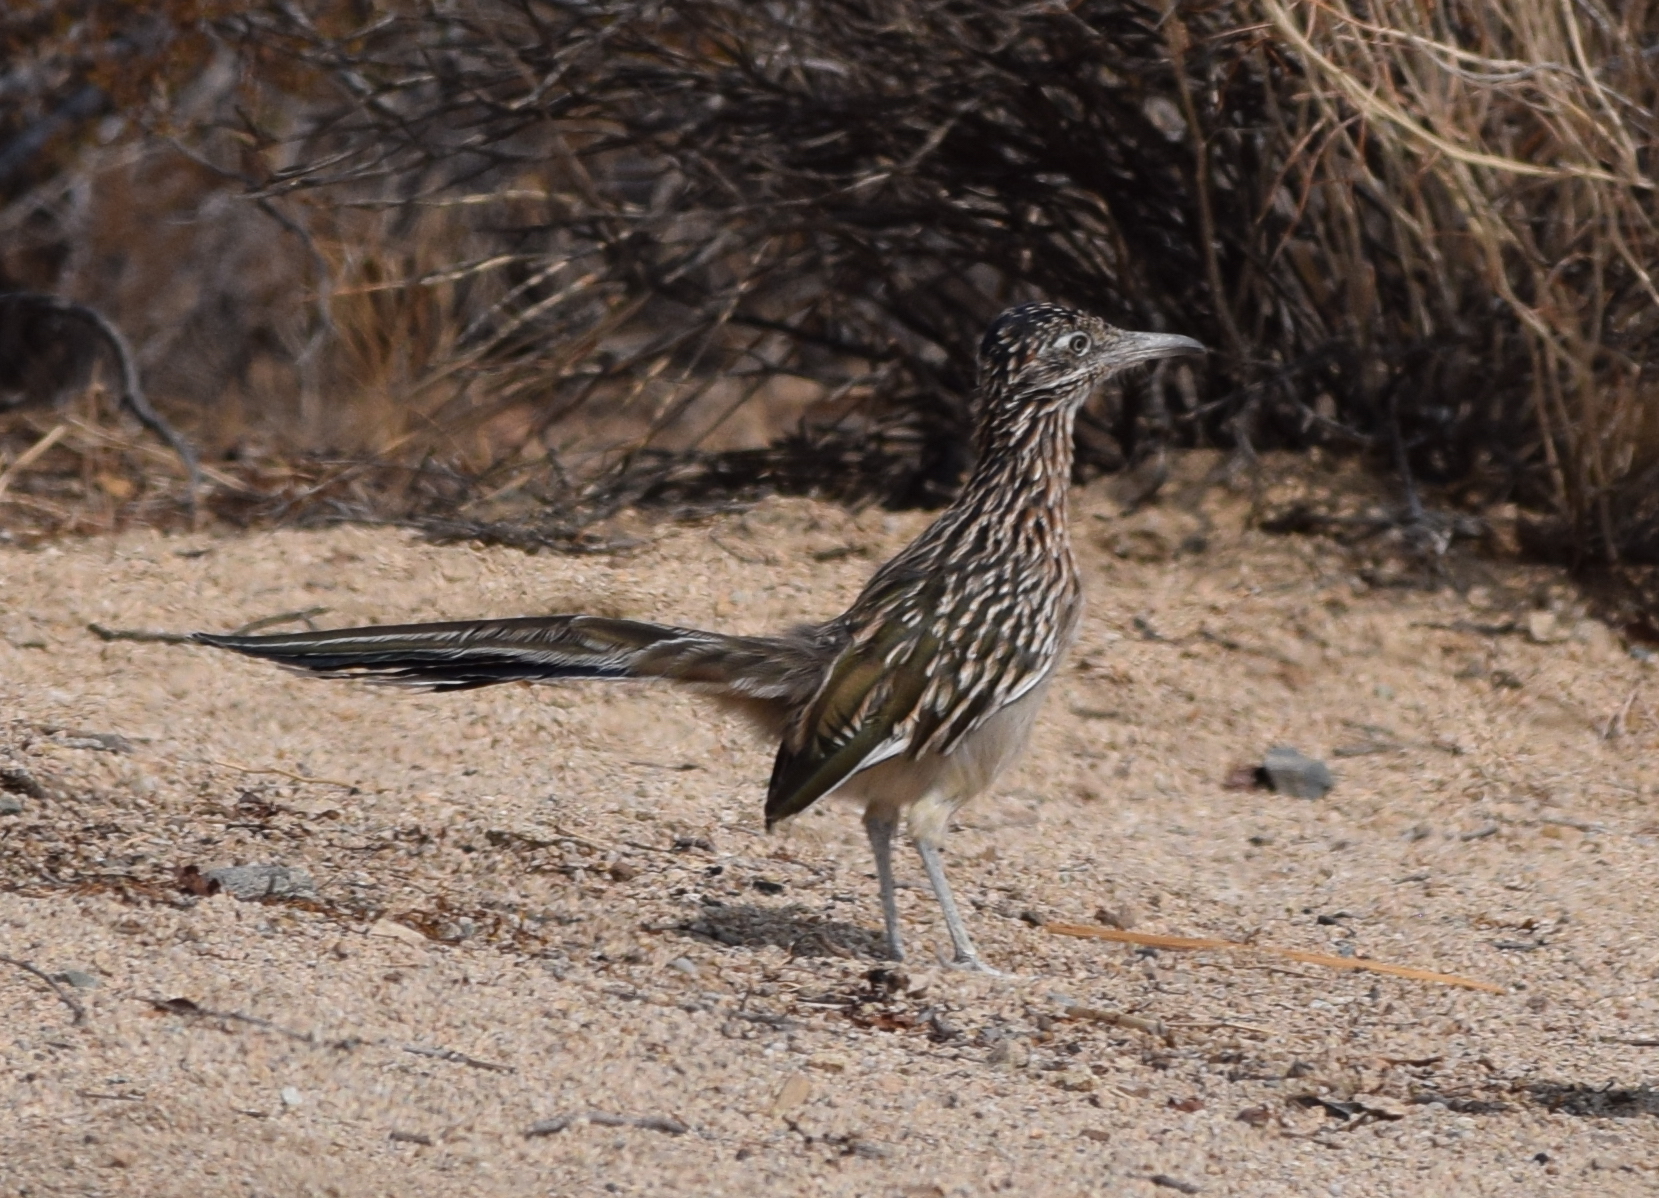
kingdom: Animalia
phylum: Chordata
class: Aves
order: Cuculiformes
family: Cuculidae
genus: Geococcyx
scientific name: Geococcyx californianus
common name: Greater roadrunner
